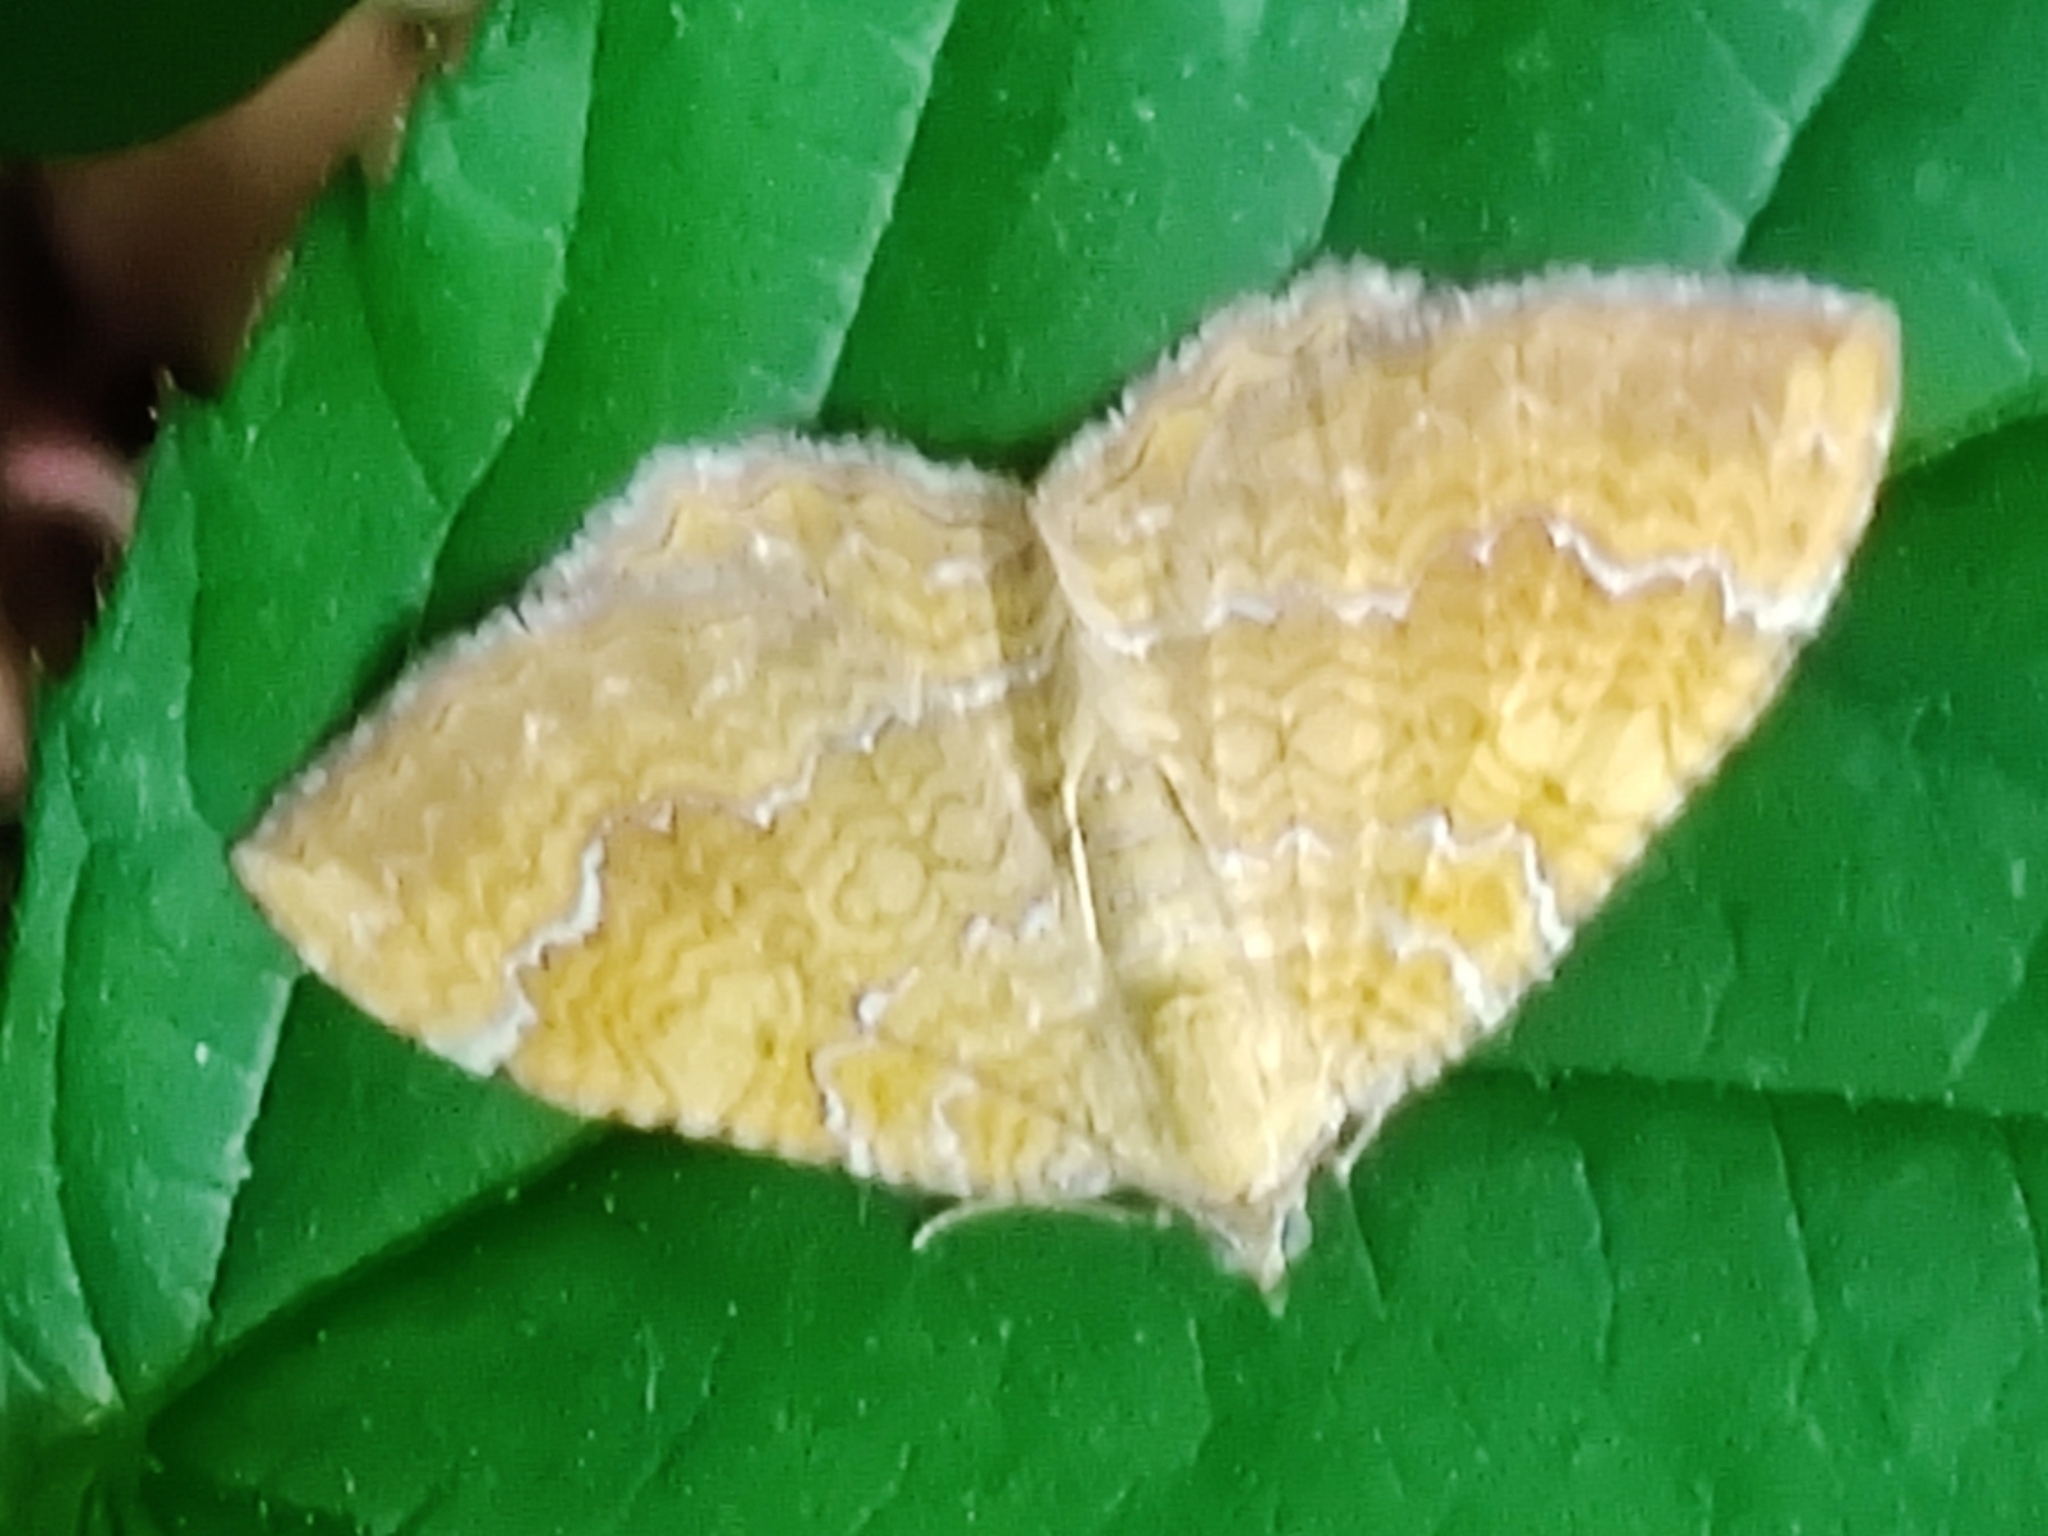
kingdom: Animalia
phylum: Arthropoda
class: Insecta
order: Lepidoptera
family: Geometridae
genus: Camptogramma
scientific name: Camptogramma bilineata
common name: Yellow shell
